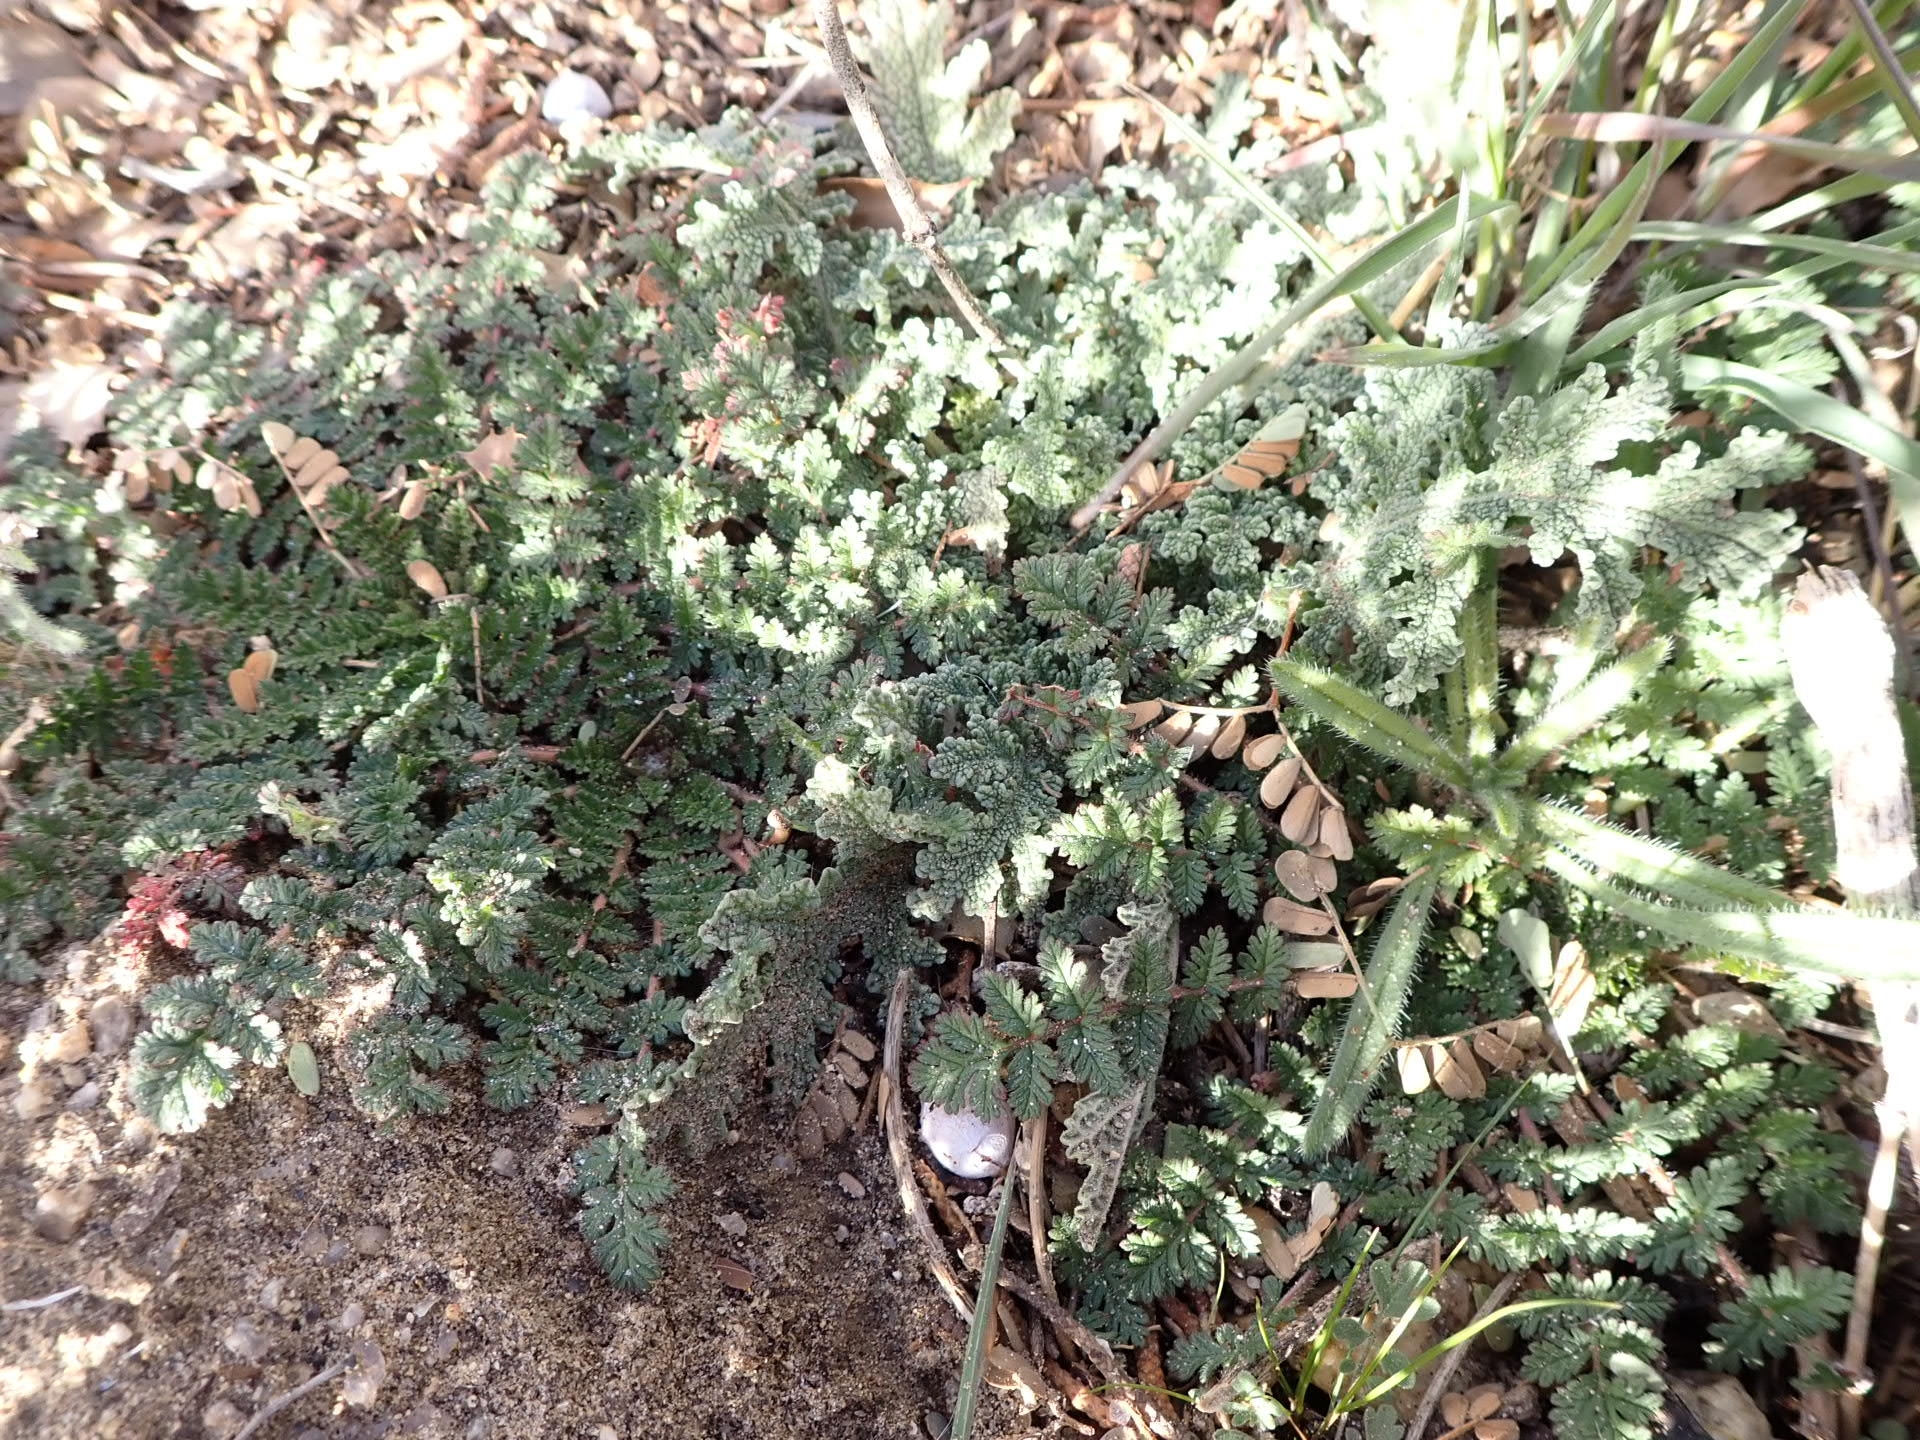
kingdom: Plantae
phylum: Tracheophyta
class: Magnoliopsida
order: Geraniales
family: Geraniaceae
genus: Erodium
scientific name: Erodium cicutarium
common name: Common stork's-bill
